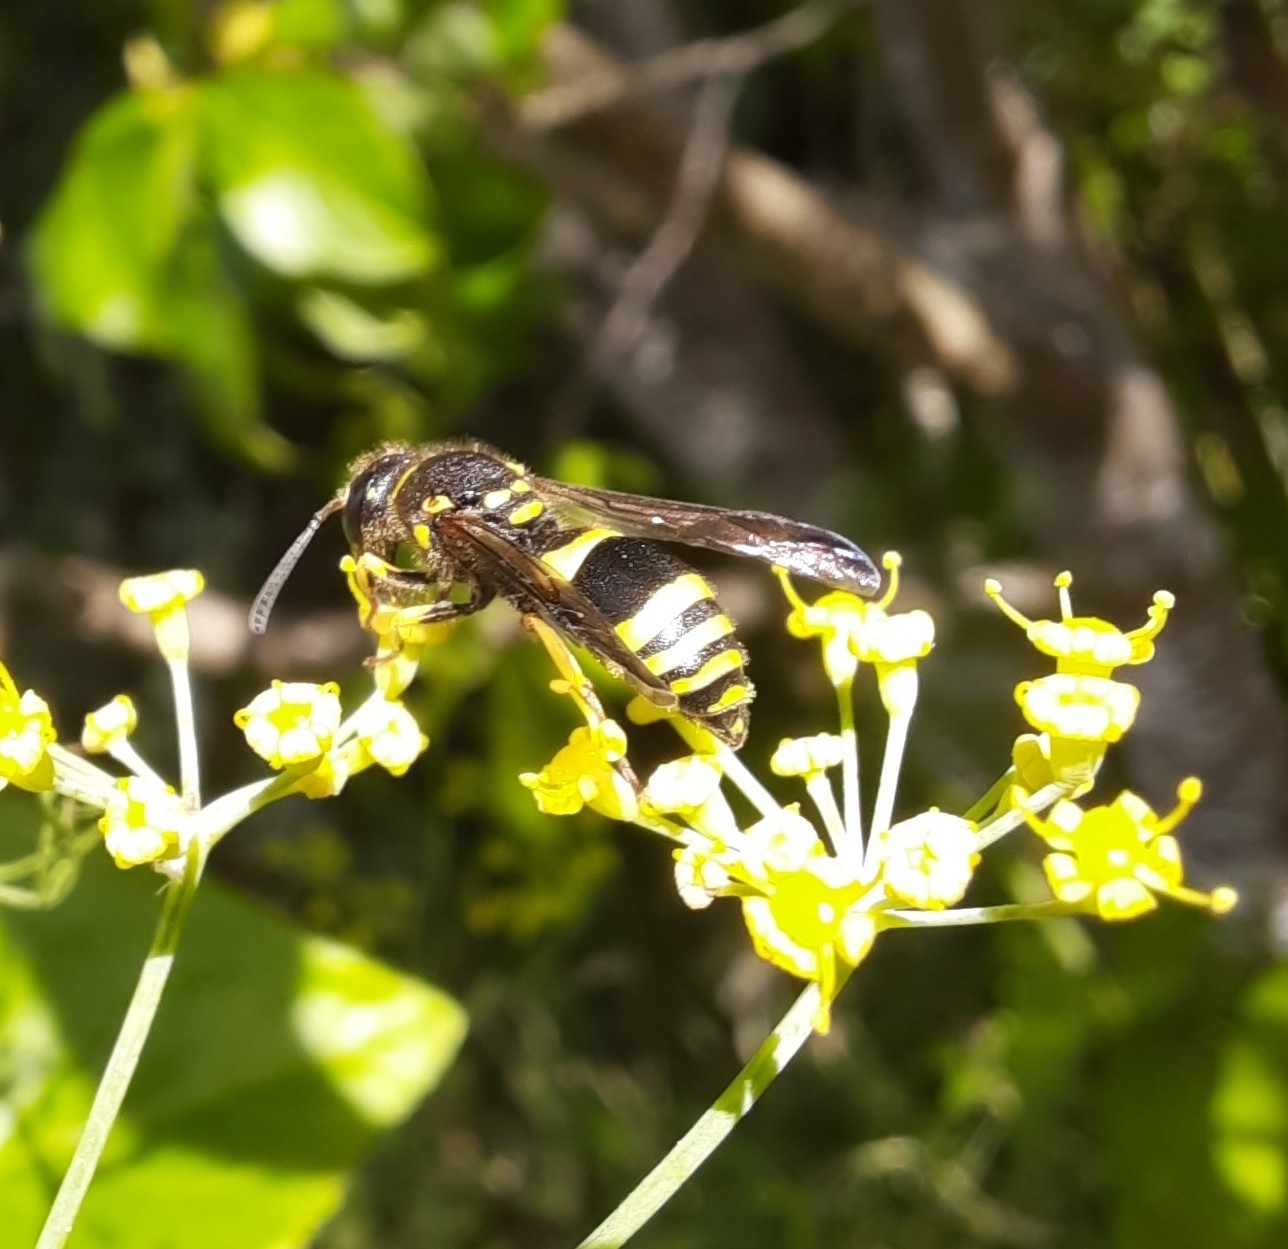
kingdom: Animalia
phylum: Arthropoda
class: Insecta
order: Hymenoptera
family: Vespidae
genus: Ancistrocerus
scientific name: Ancistrocerus gazella
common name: European tube wasp
